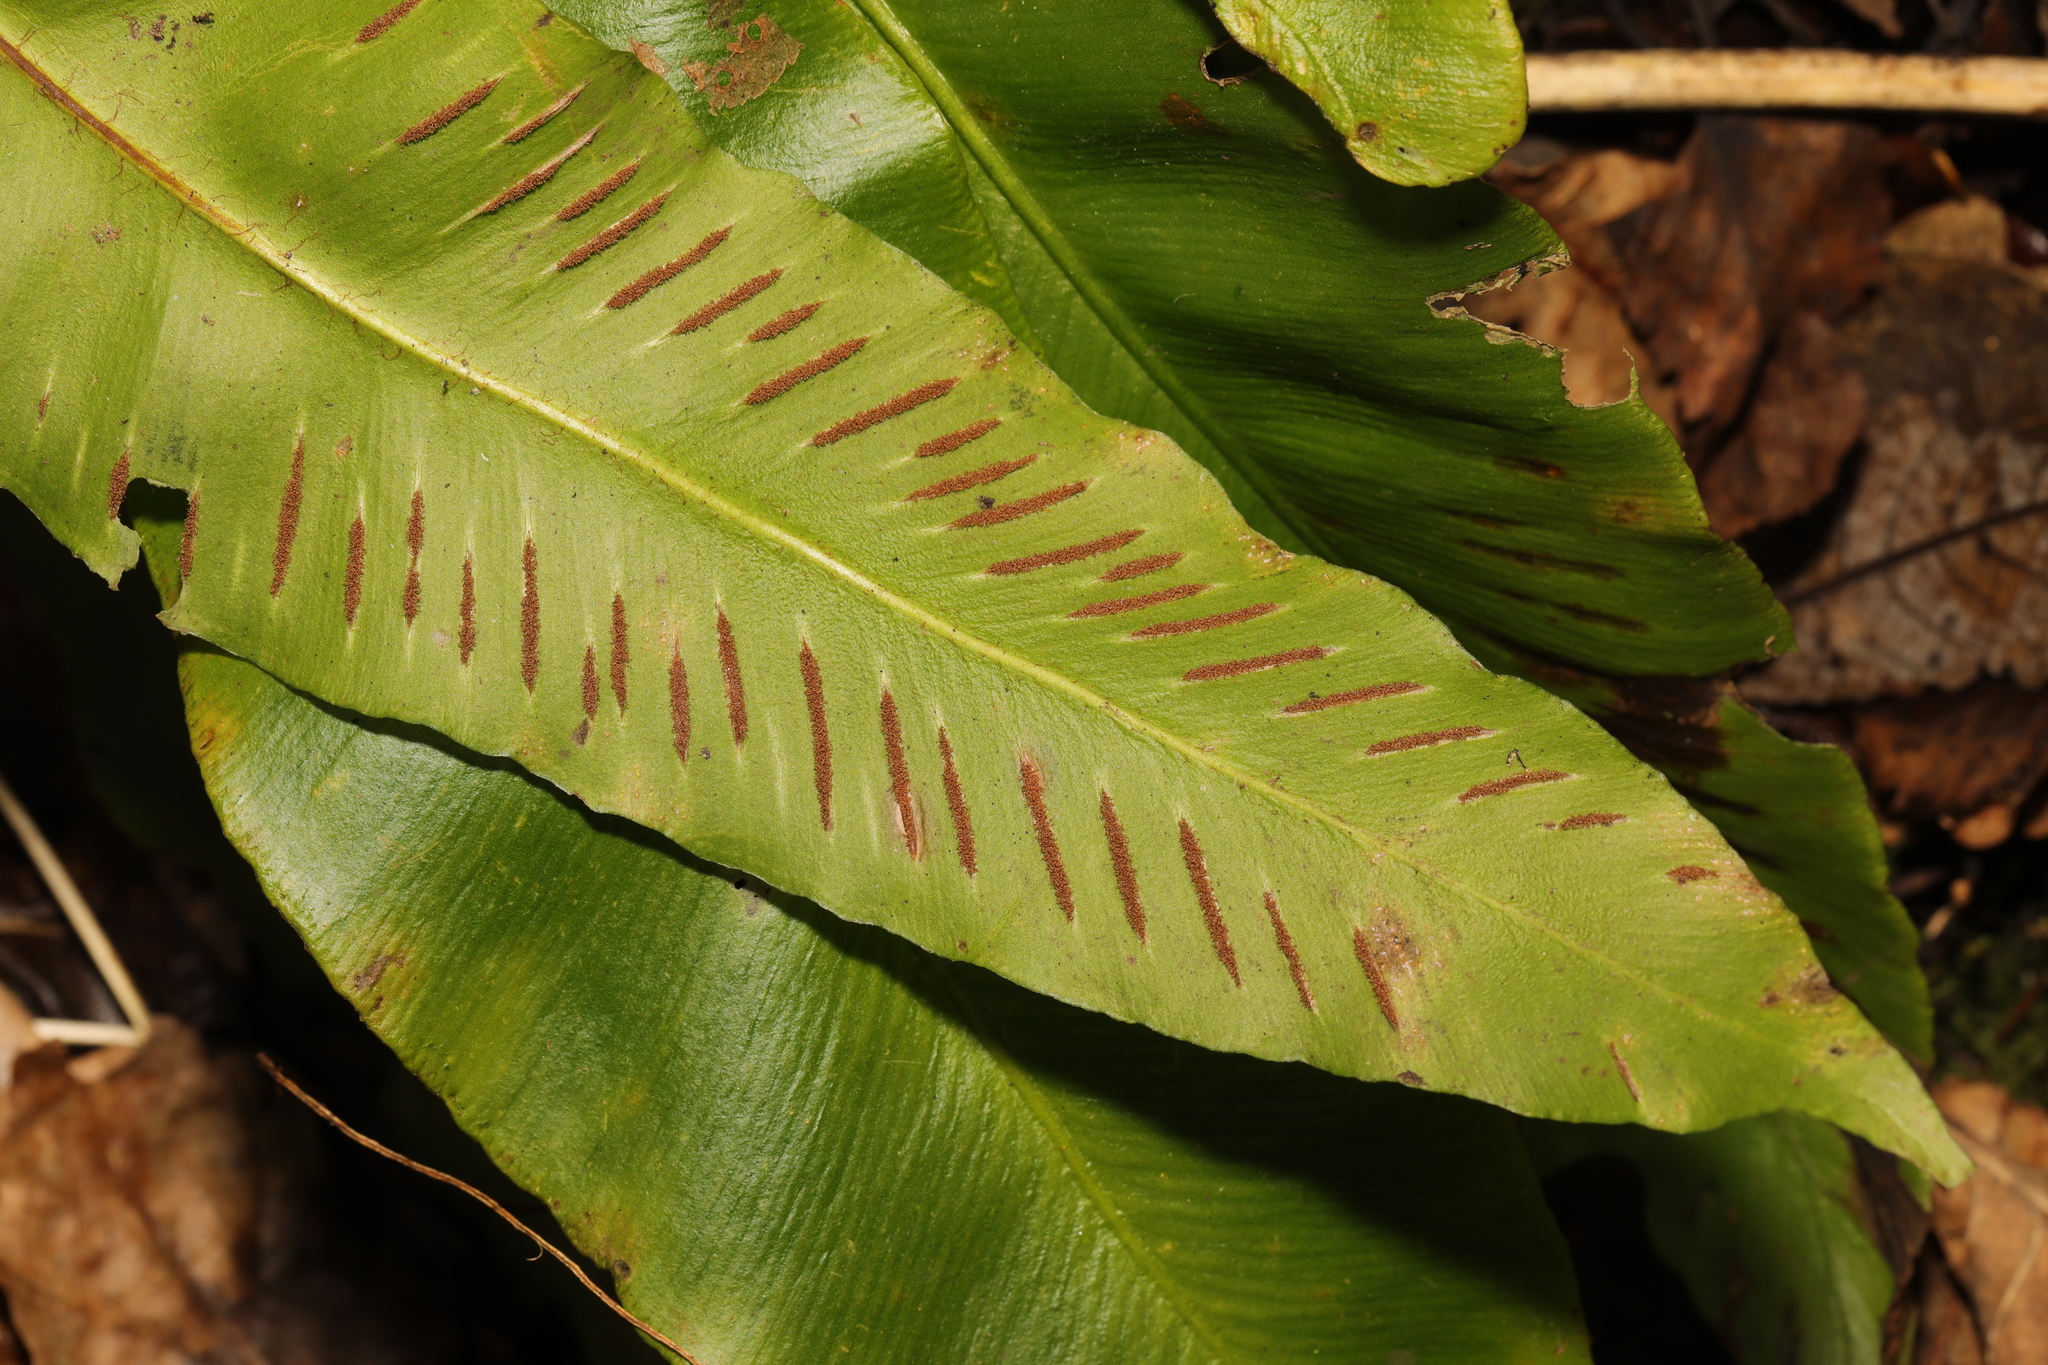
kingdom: Plantae
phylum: Tracheophyta
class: Polypodiopsida
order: Polypodiales
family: Aspleniaceae
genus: Asplenium
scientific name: Asplenium scolopendrium
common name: Hart's-tongue fern
